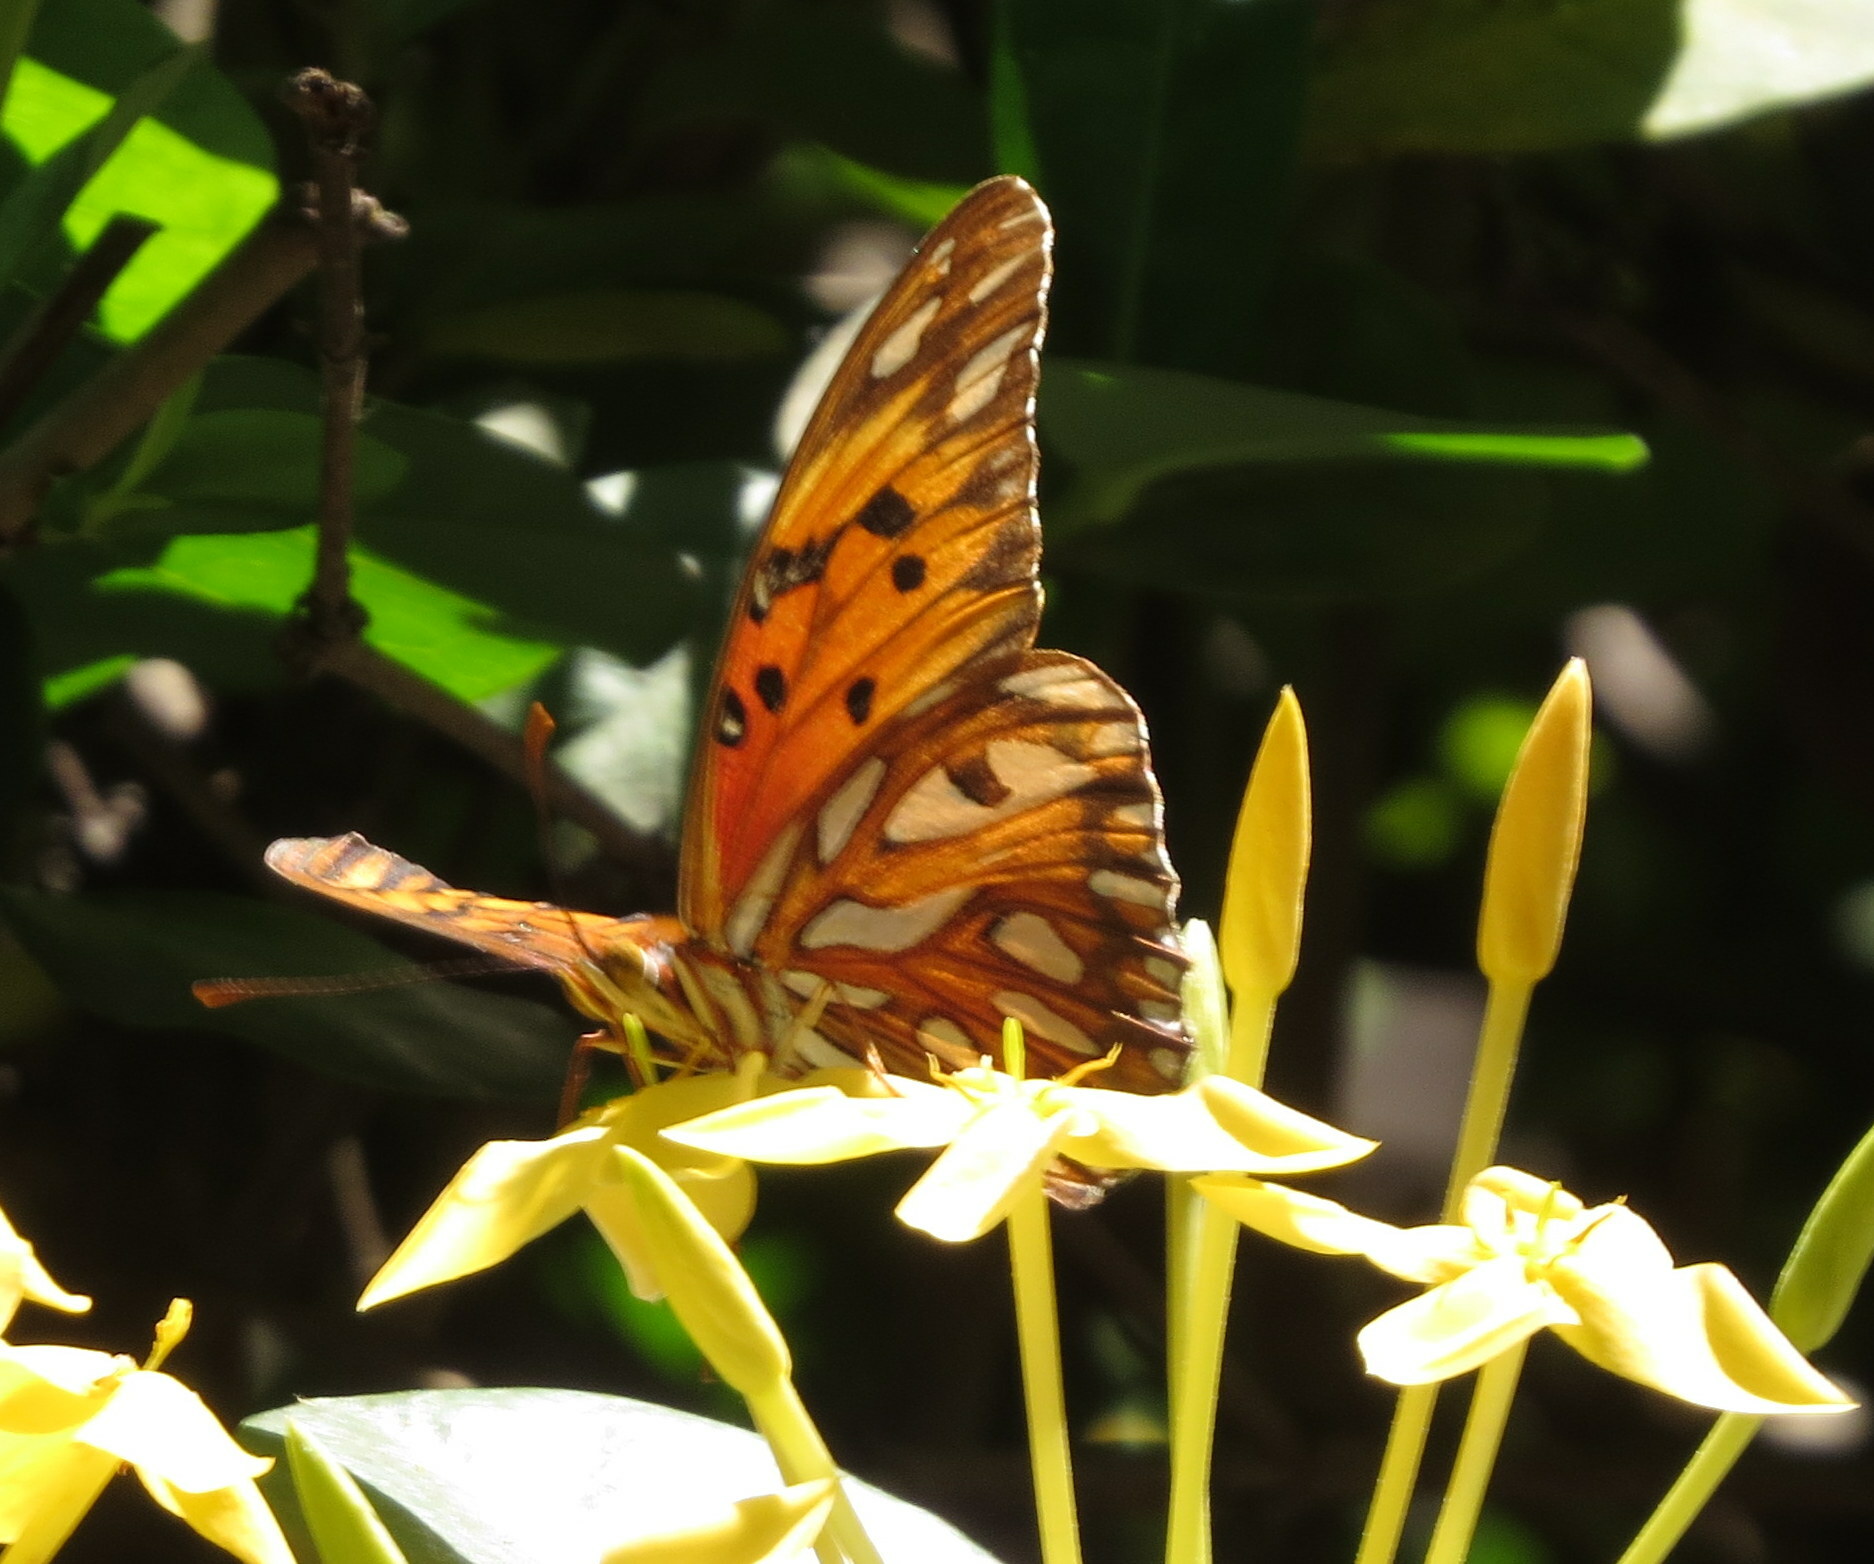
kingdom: Animalia
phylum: Arthropoda
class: Insecta
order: Lepidoptera
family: Nymphalidae
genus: Dione
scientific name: Dione vanillae
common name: Gulf fritillary
